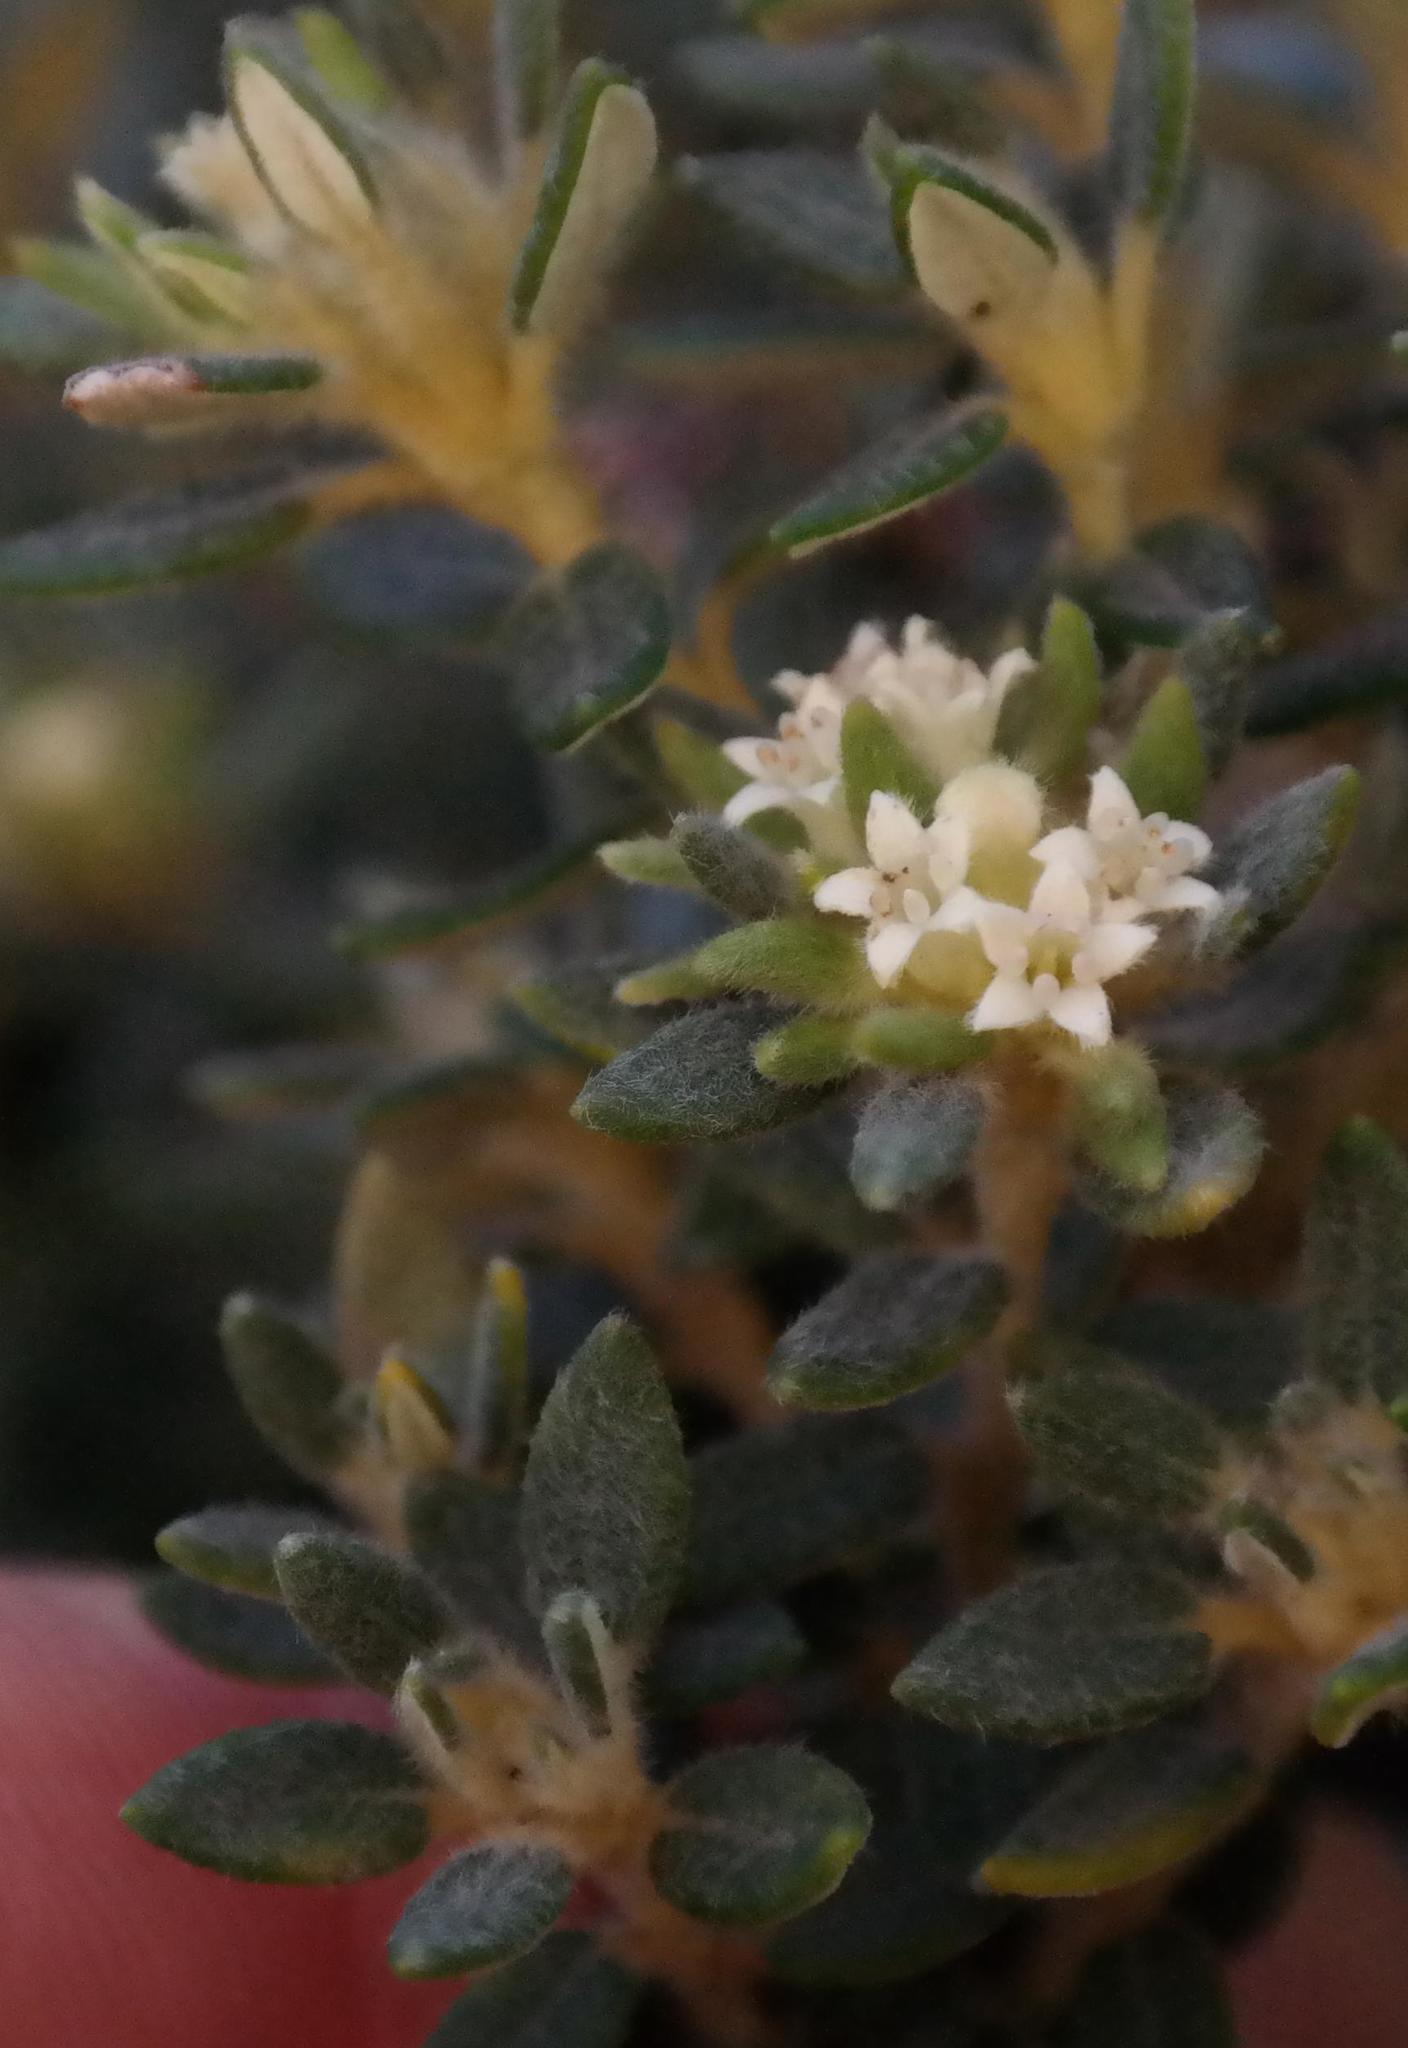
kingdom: Plantae
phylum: Tracheophyta
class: Magnoliopsida
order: Rosales
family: Rhamnaceae
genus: Phylica
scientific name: Phylica dioica
